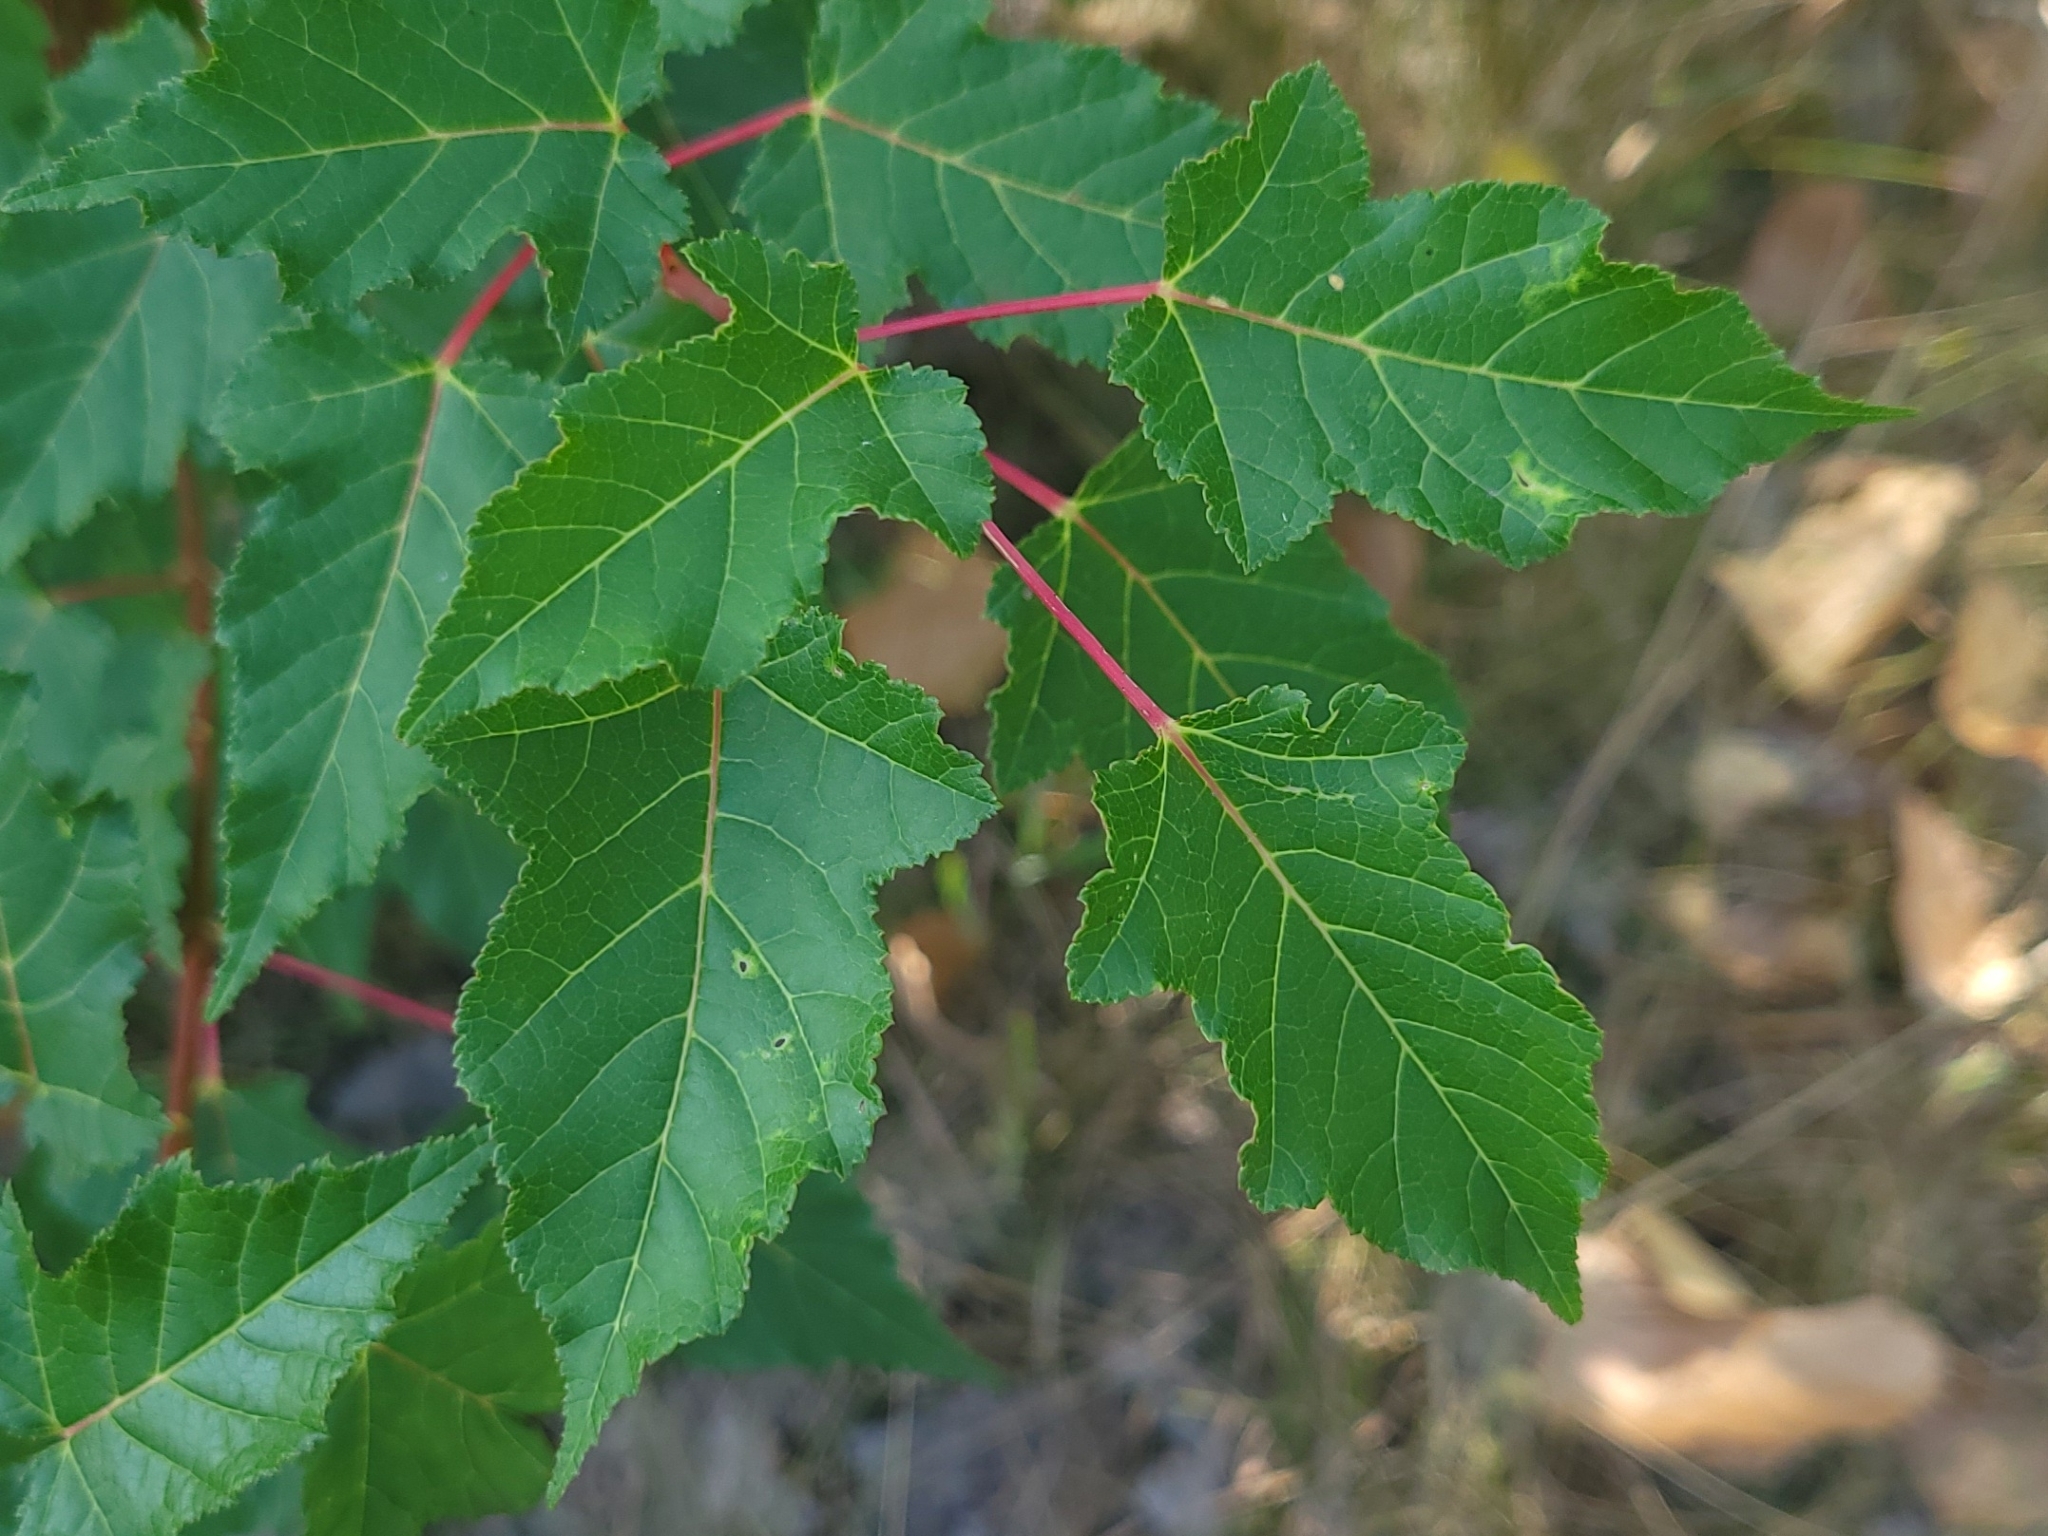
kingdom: Plantae
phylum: Tracheophyta
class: Magnoliopsida
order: Sapindales
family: Sapindaceae
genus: Acer
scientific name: Acer tataricum
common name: Tartar maple
